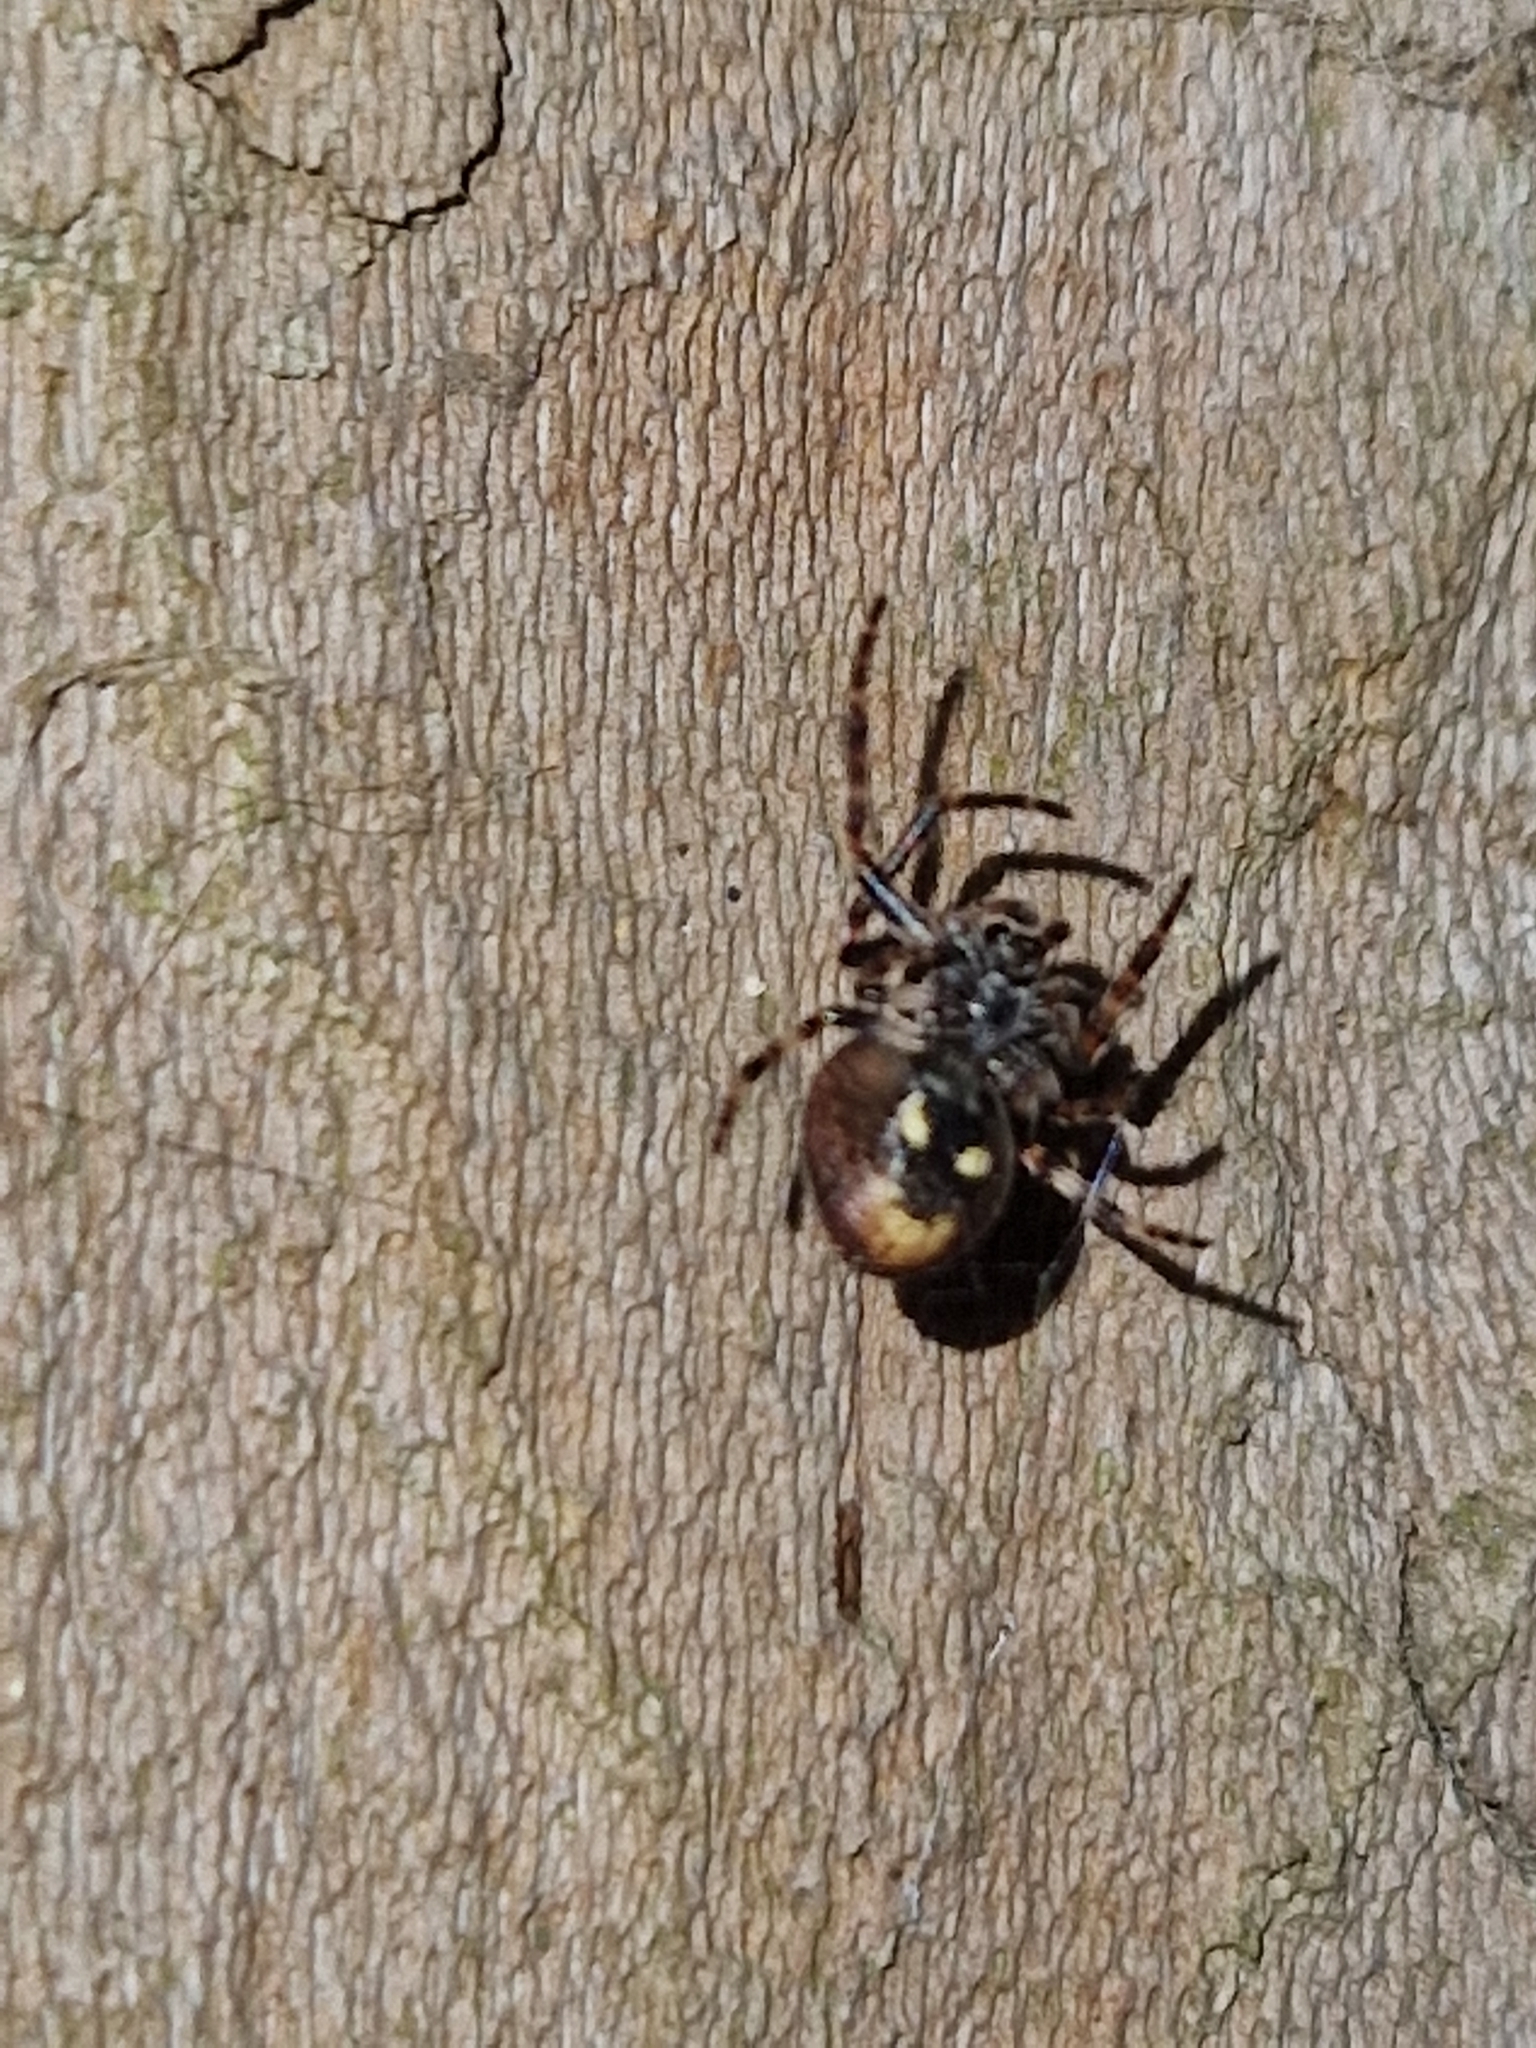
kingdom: Animalia
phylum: Arthropoda
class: Arachnida
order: Araneae
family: Araneidae
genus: Nuctenea
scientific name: Nuctenea umbratica
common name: Toad spider
